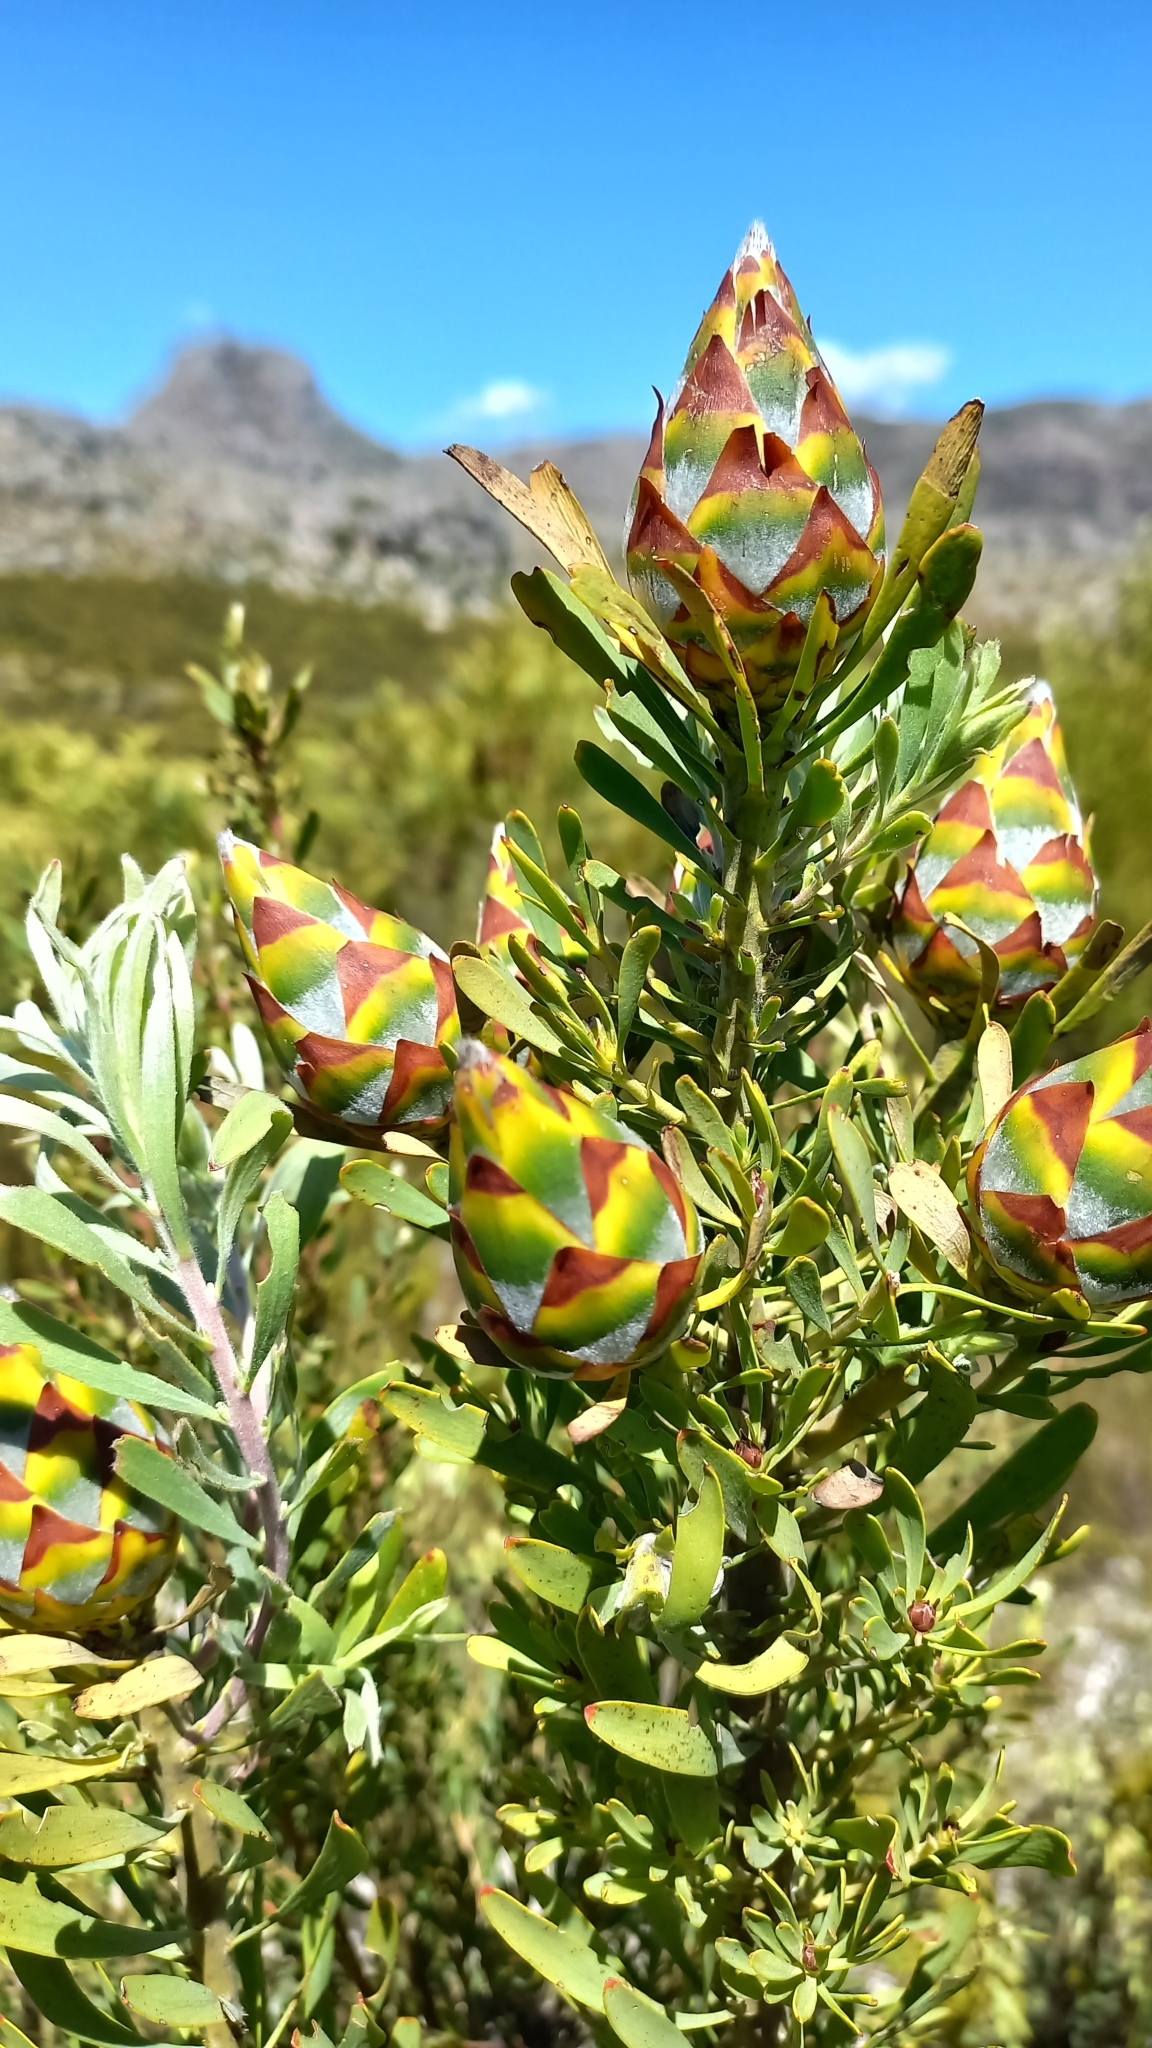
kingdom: Plantae
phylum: Tracheophyta
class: Magnoliopsida
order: Proteales
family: Proteaceae
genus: Leucadendron
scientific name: Leucadendron rubrum
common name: Spinning top
